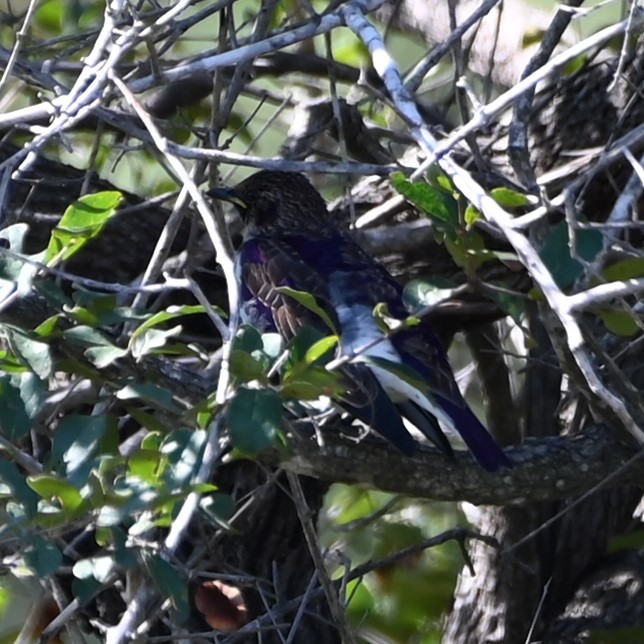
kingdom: Animalia
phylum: Chordata
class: Aves
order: Passeriformes
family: Sturnidae
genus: Cinnyricinclus
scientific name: Cinnyricinclus leucogaster
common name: Violet-backed starling
